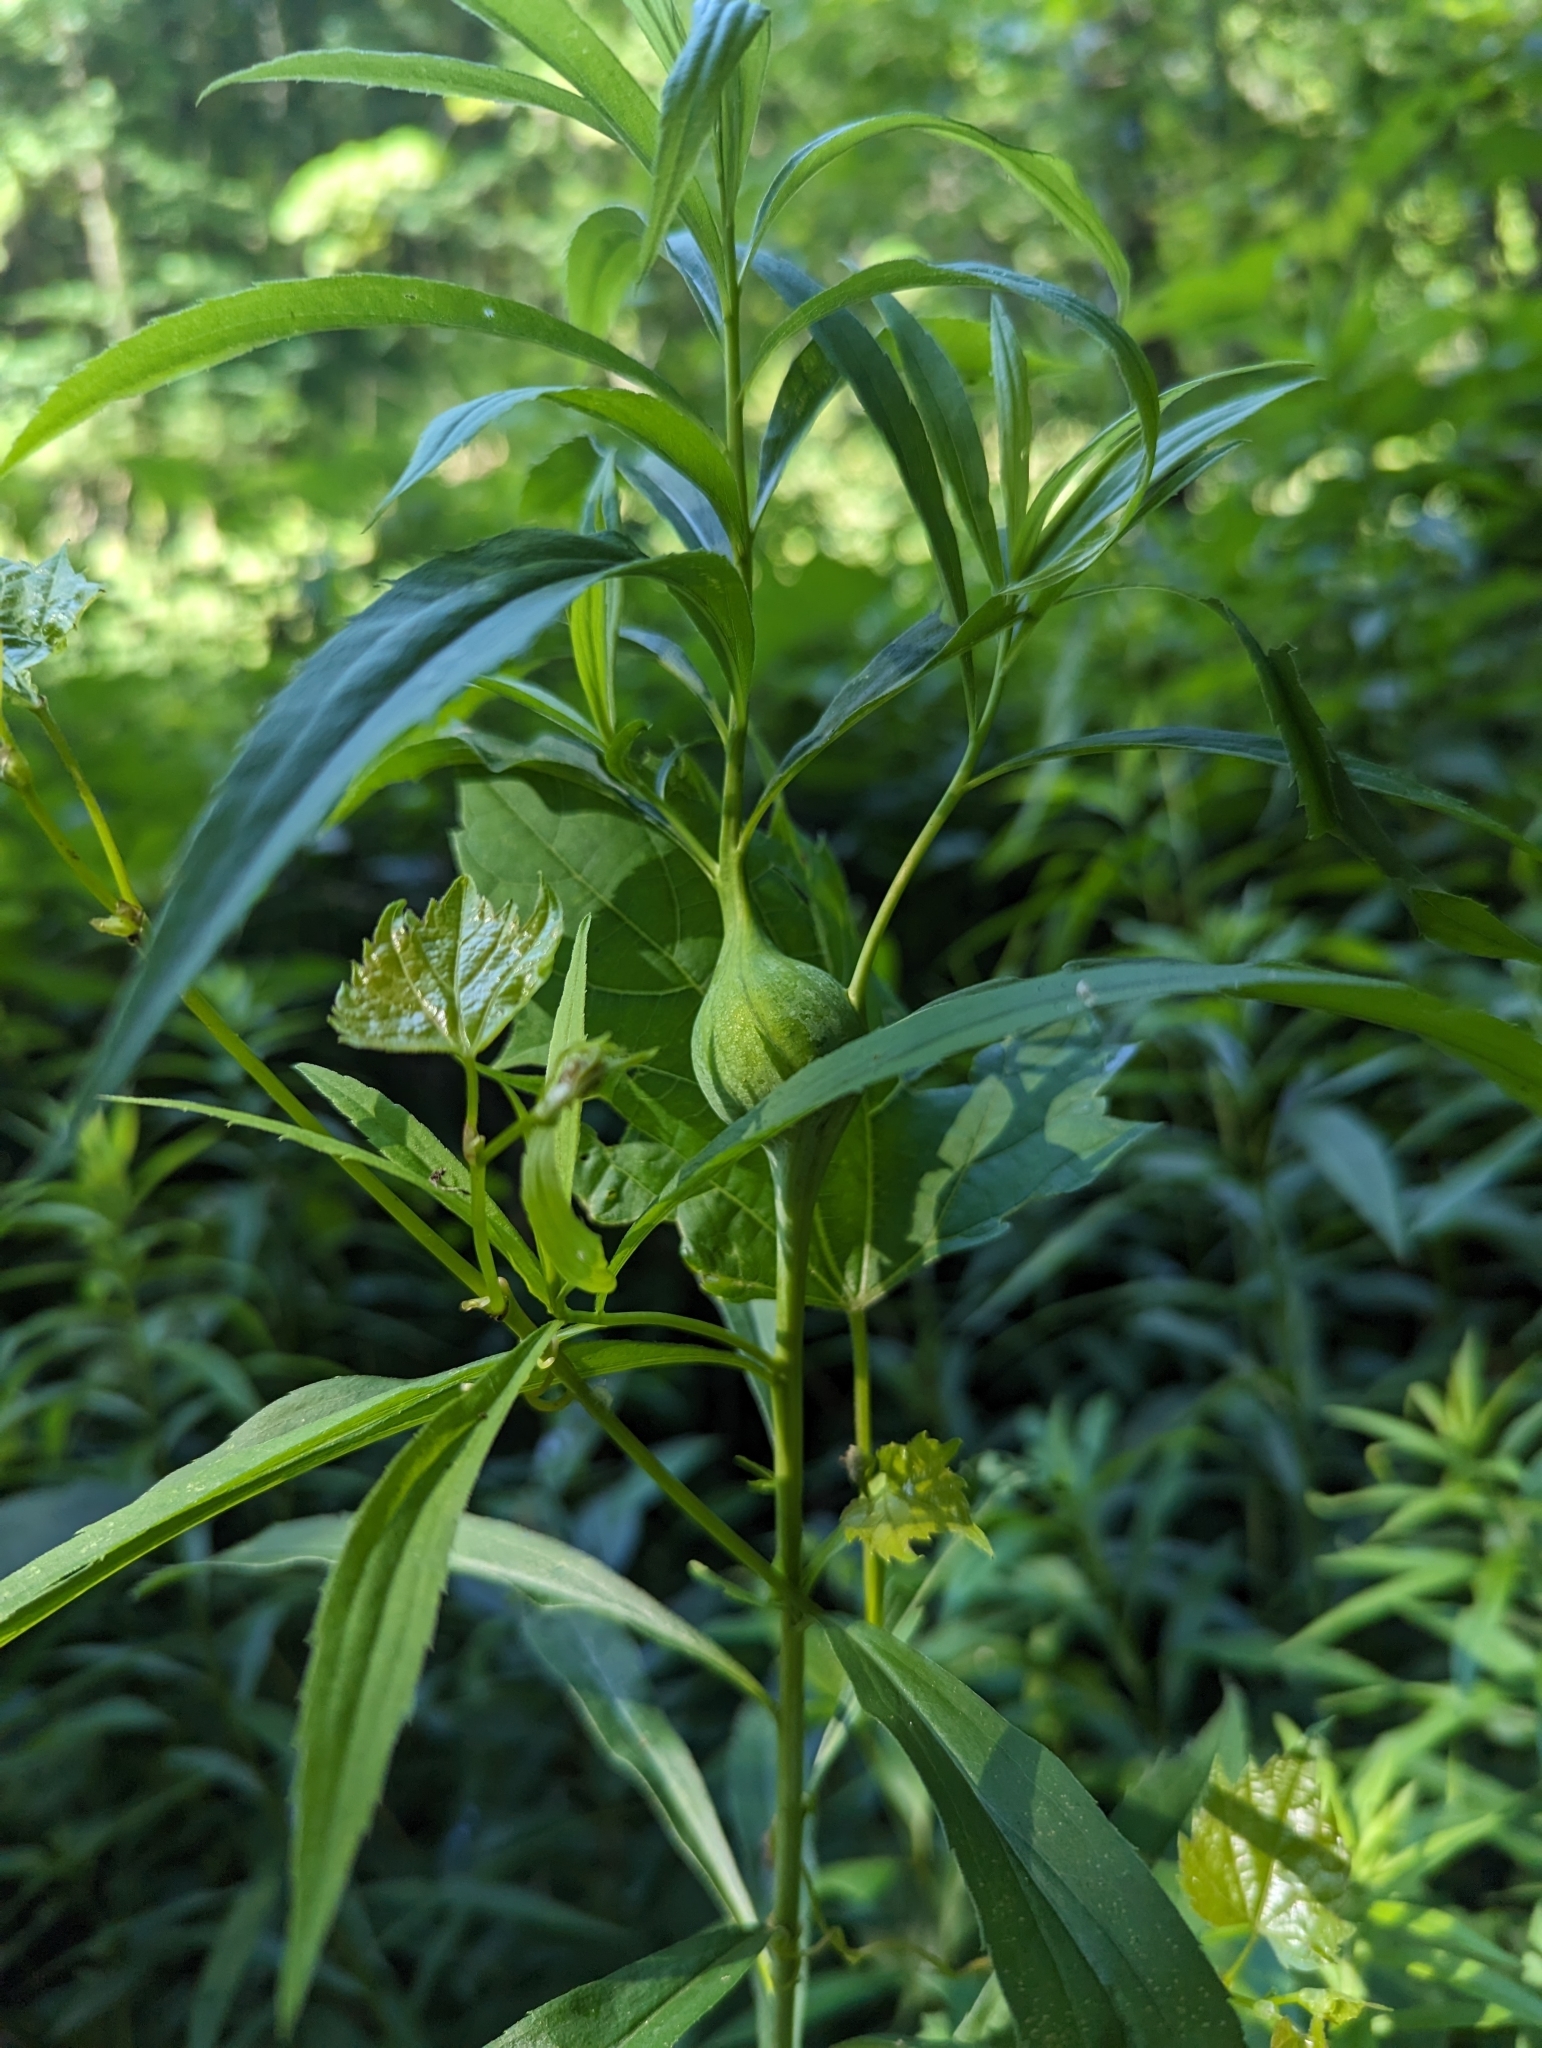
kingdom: Animalia
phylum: Arthropoda
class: Insecta
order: Diptera
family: Tephritidae
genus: Eurosta
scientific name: Eurosta solidaginis
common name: Goldenrod gall fly
